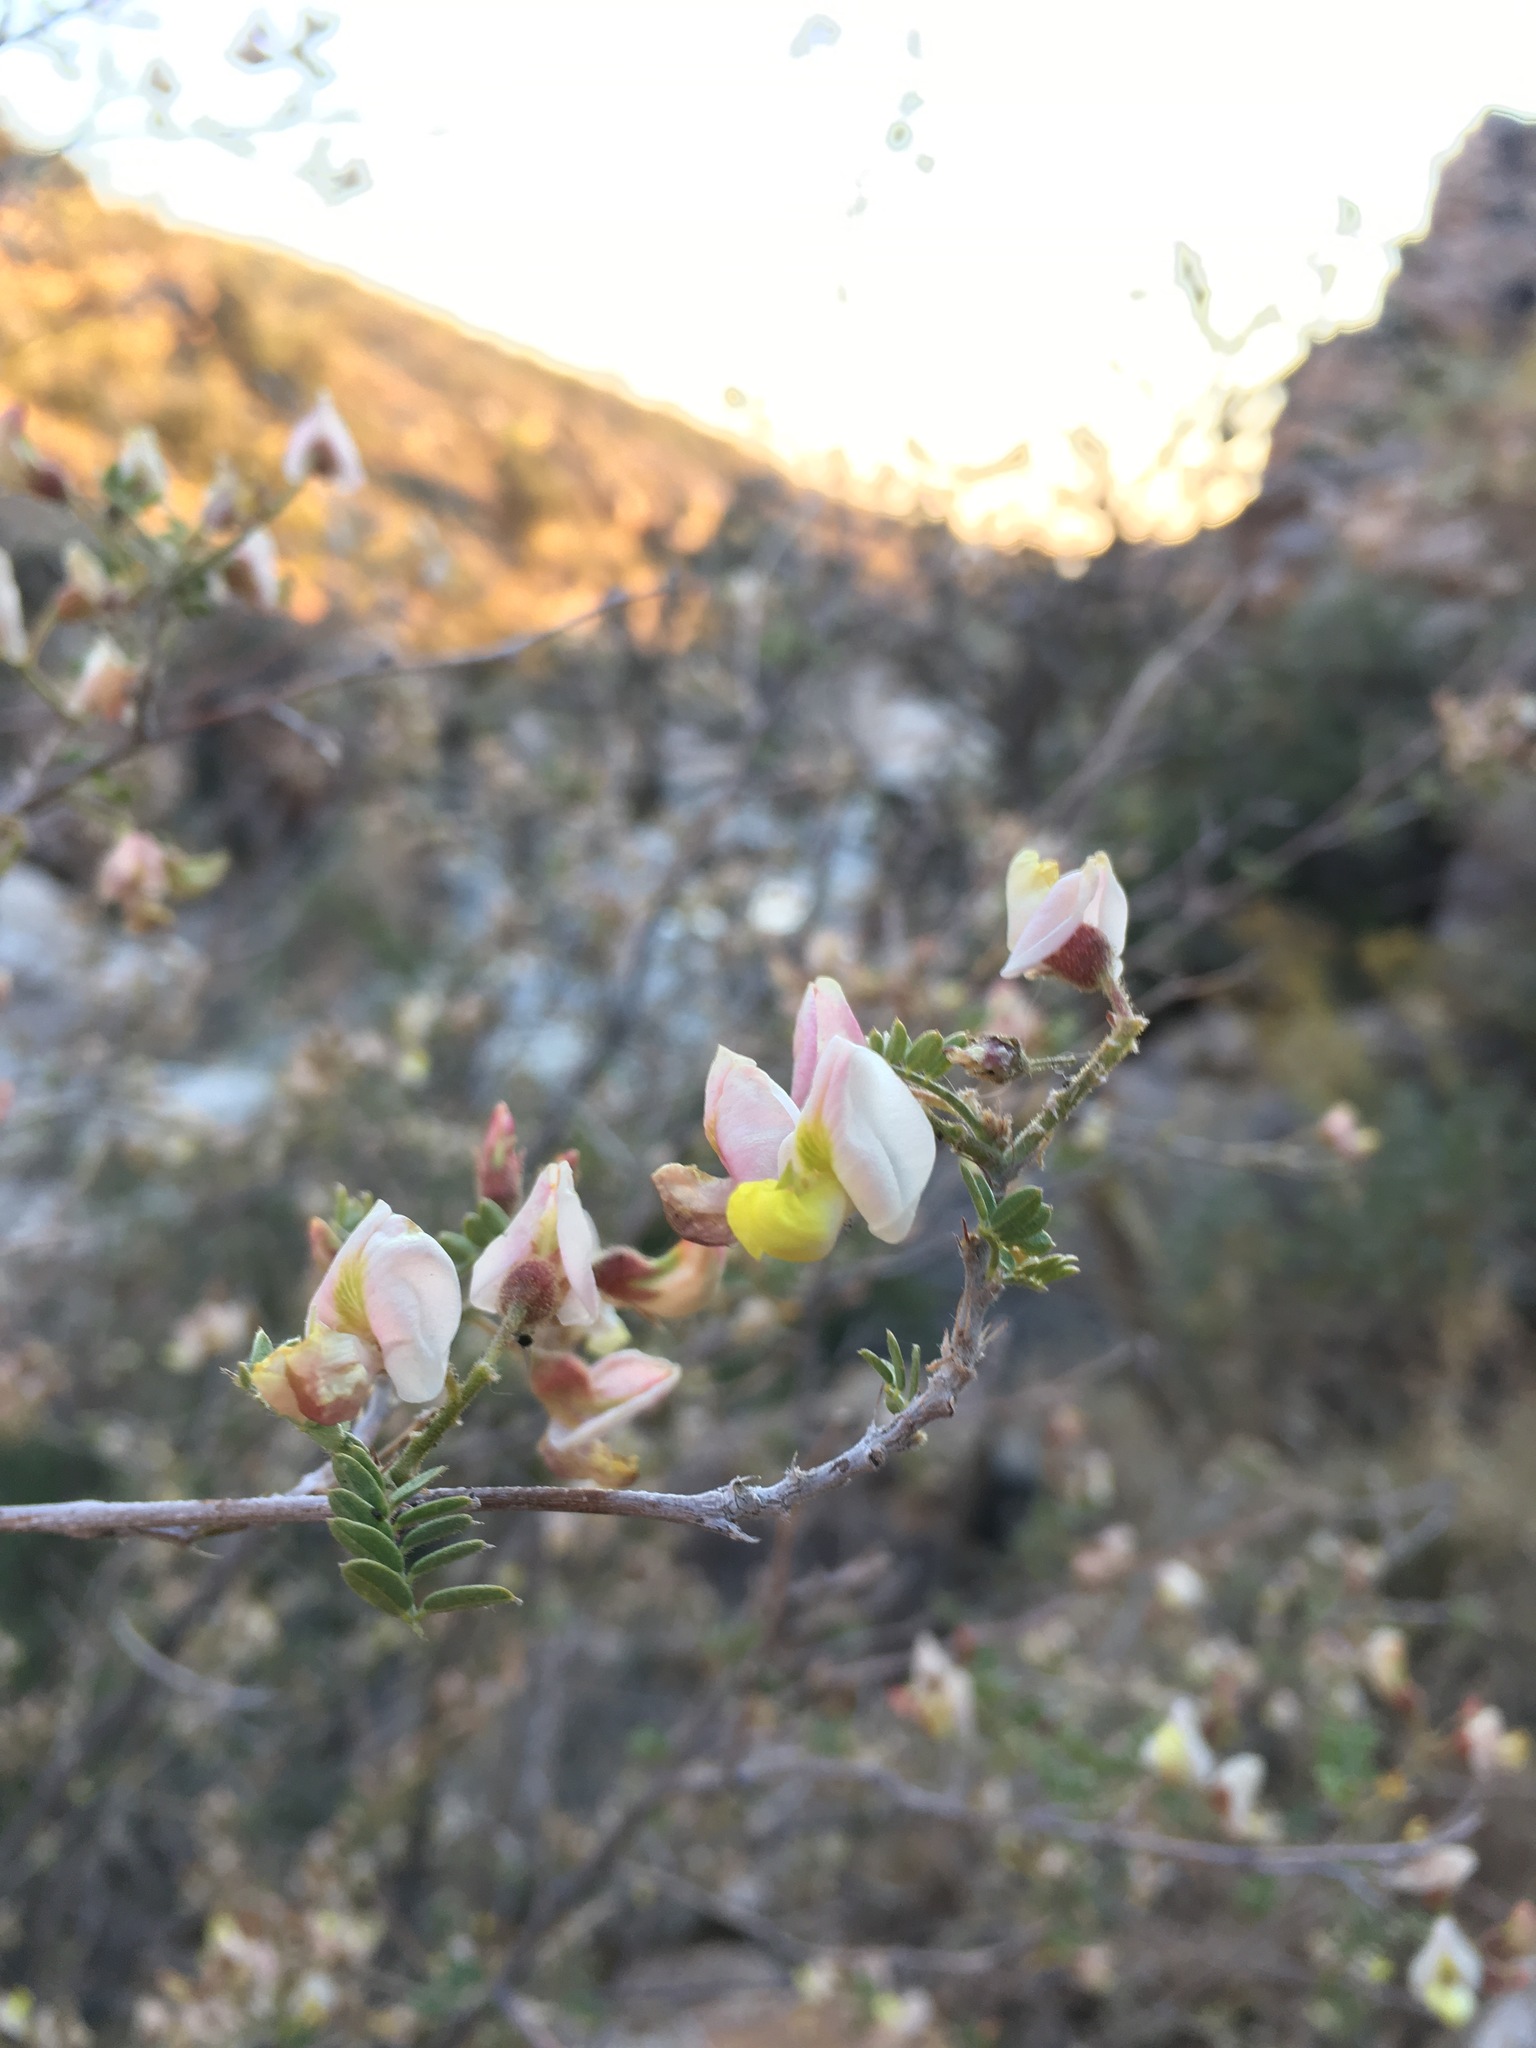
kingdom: Plantae
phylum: Tracheophyta
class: Magnoliopsida
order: Fabales
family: Fabaceae
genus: Coursetia
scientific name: Coursetia glandulosa
